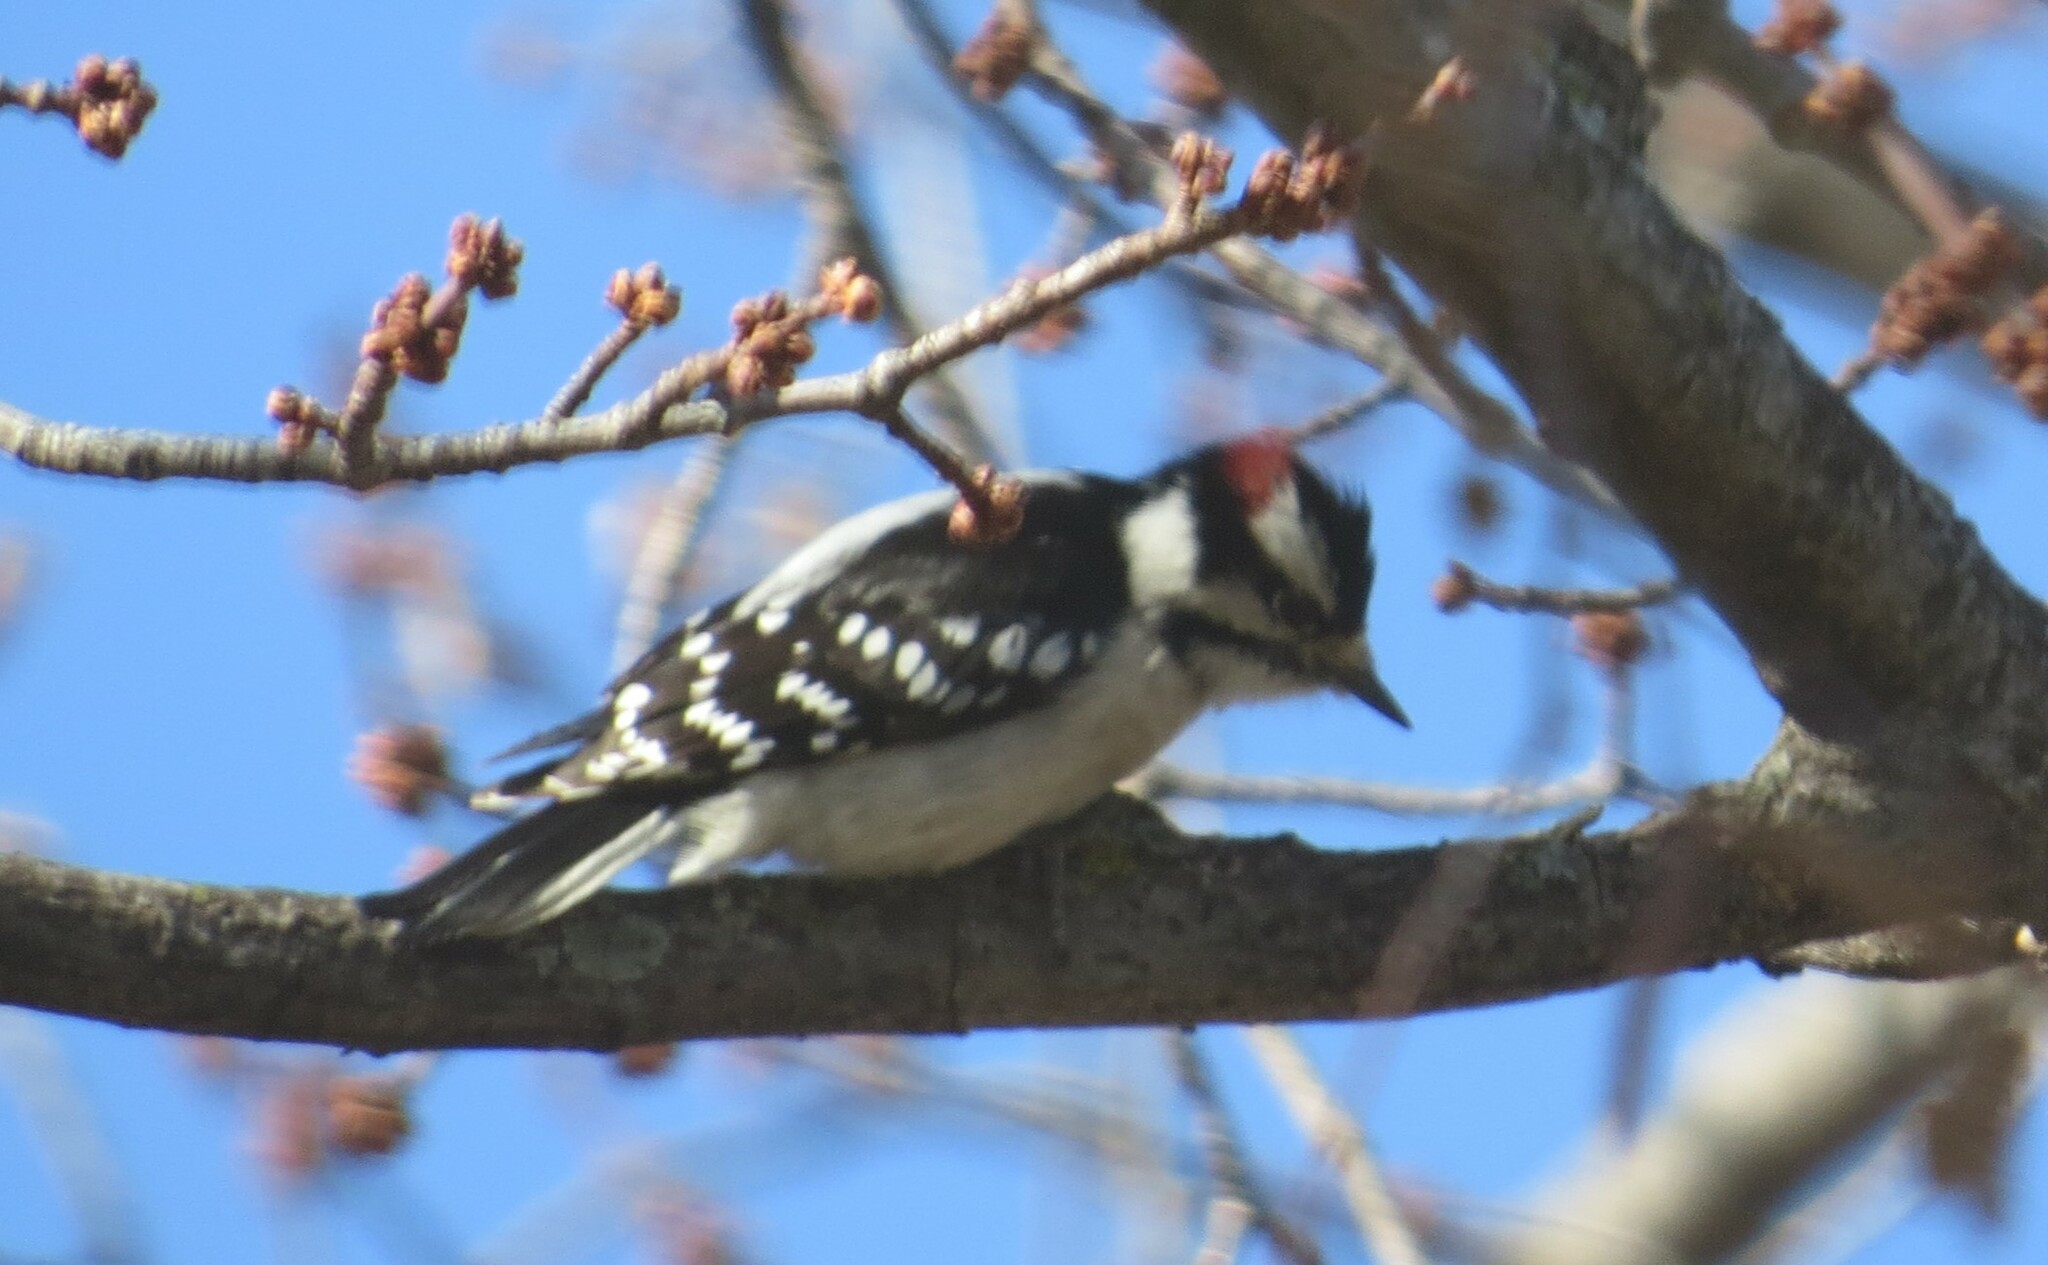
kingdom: Animalia
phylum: Chordata
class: Aves
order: Piciformes
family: Picidae
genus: Dryobates
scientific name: Dryobates pubescens
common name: Downy woodpecker
